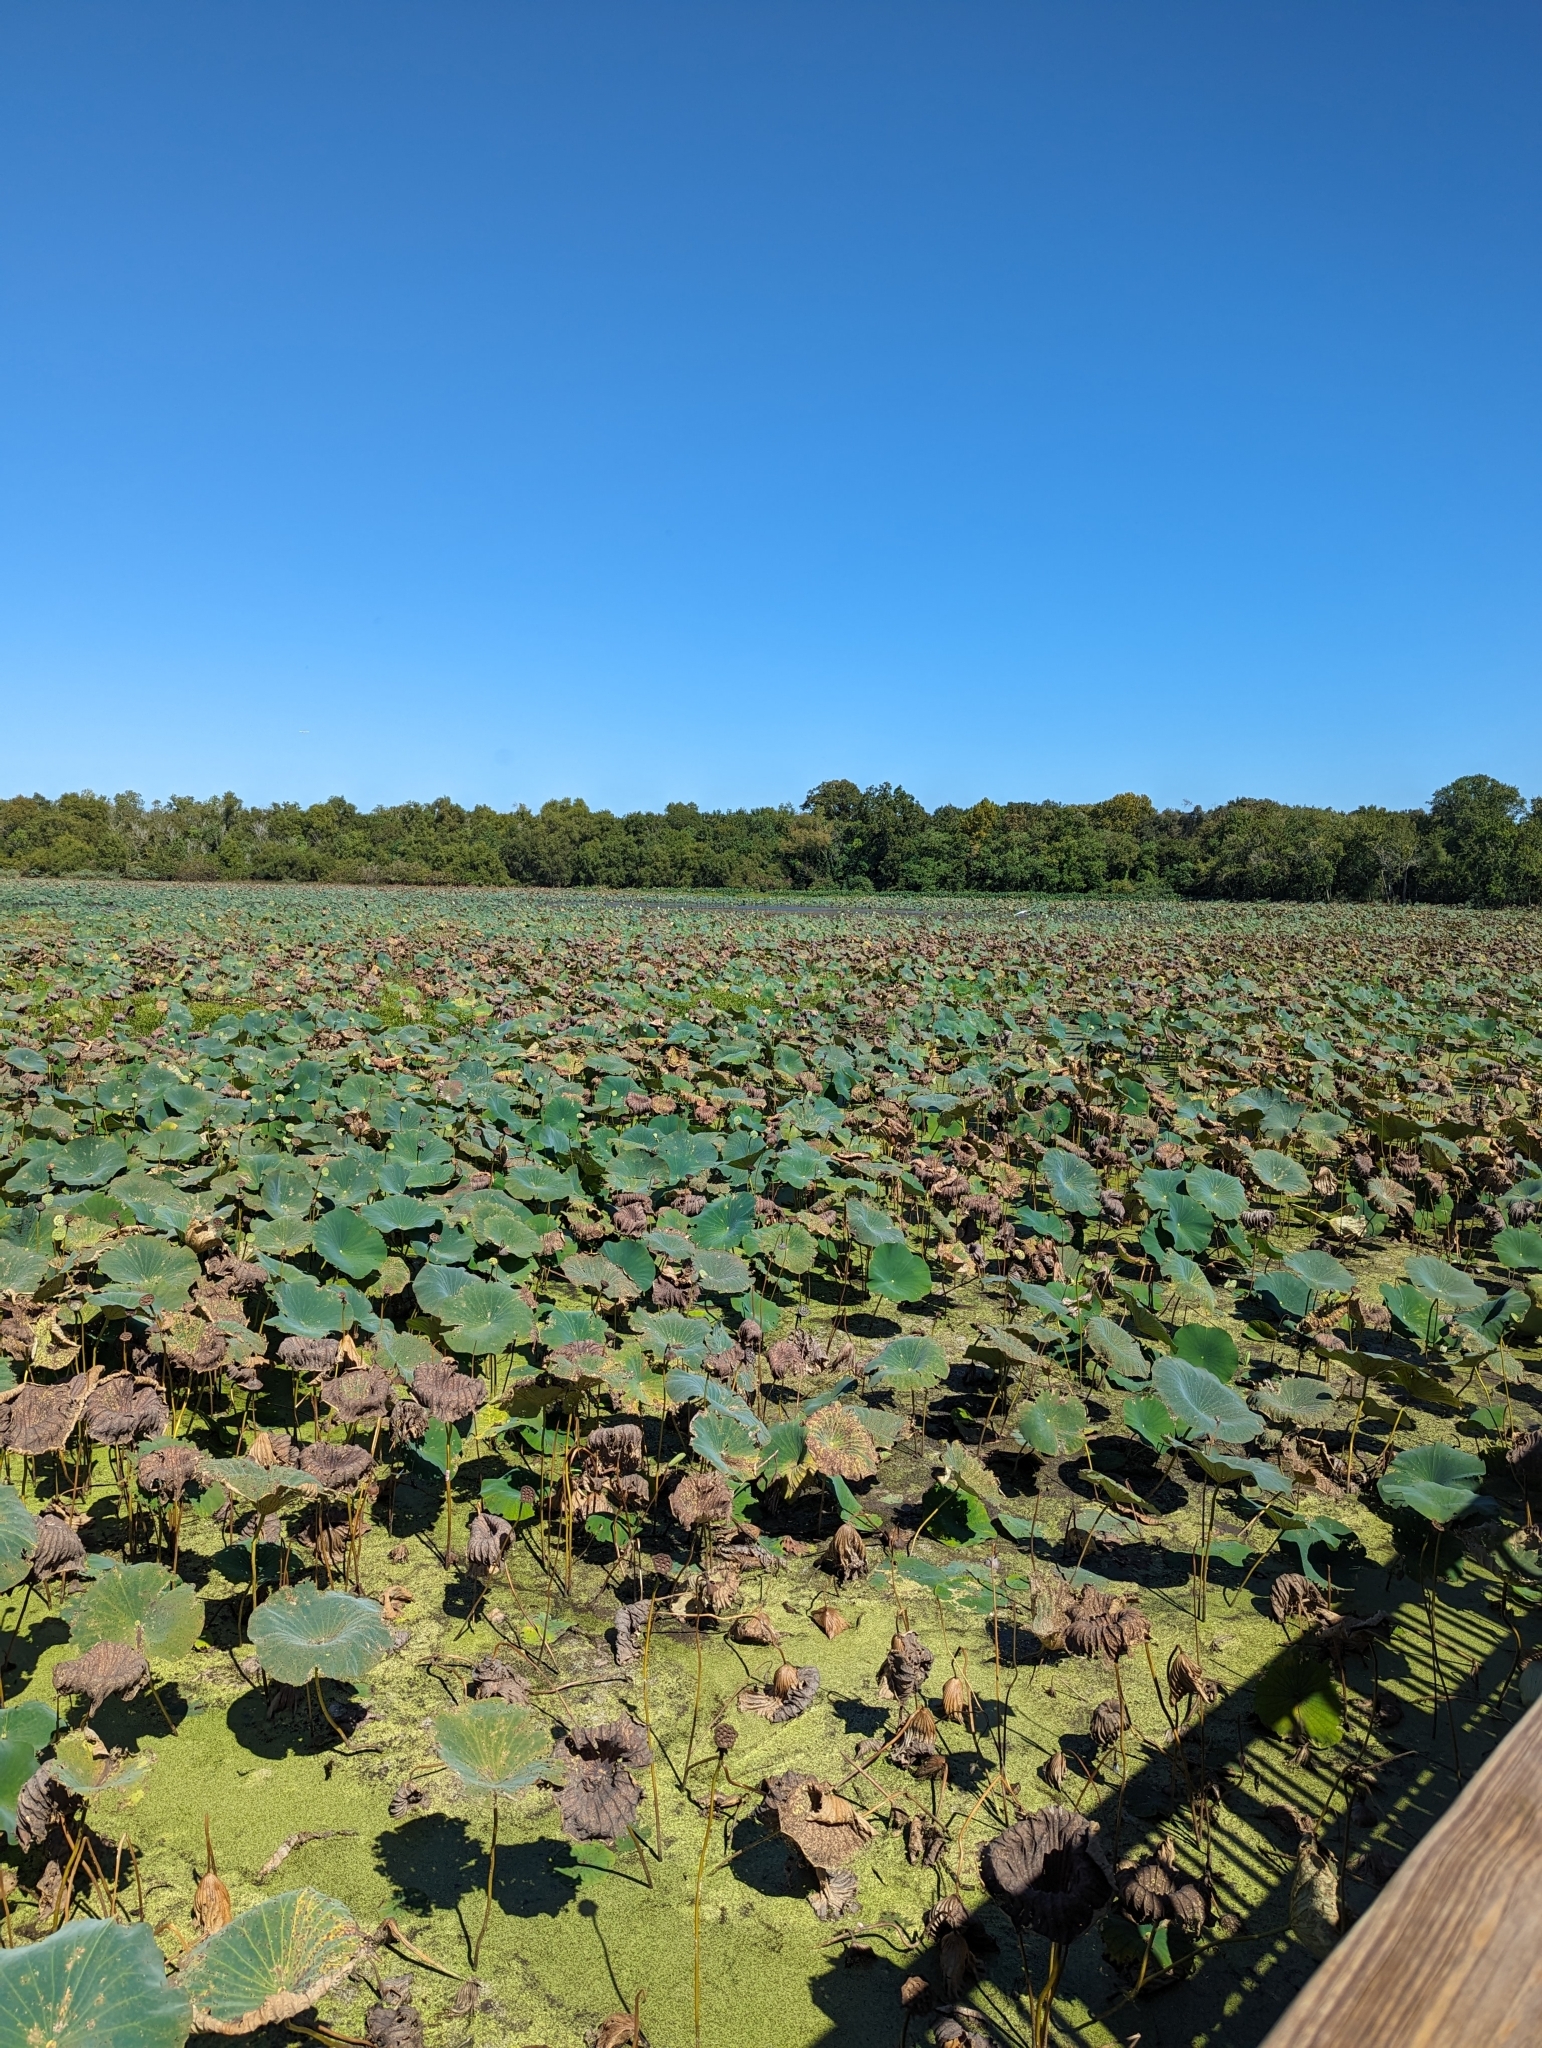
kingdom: Plantae
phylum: Tracheophyta
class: Magnoliopsida
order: Proteales
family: Nelumbonaceae
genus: Nelumbo
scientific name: Nelumbo lutea
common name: American lotus
